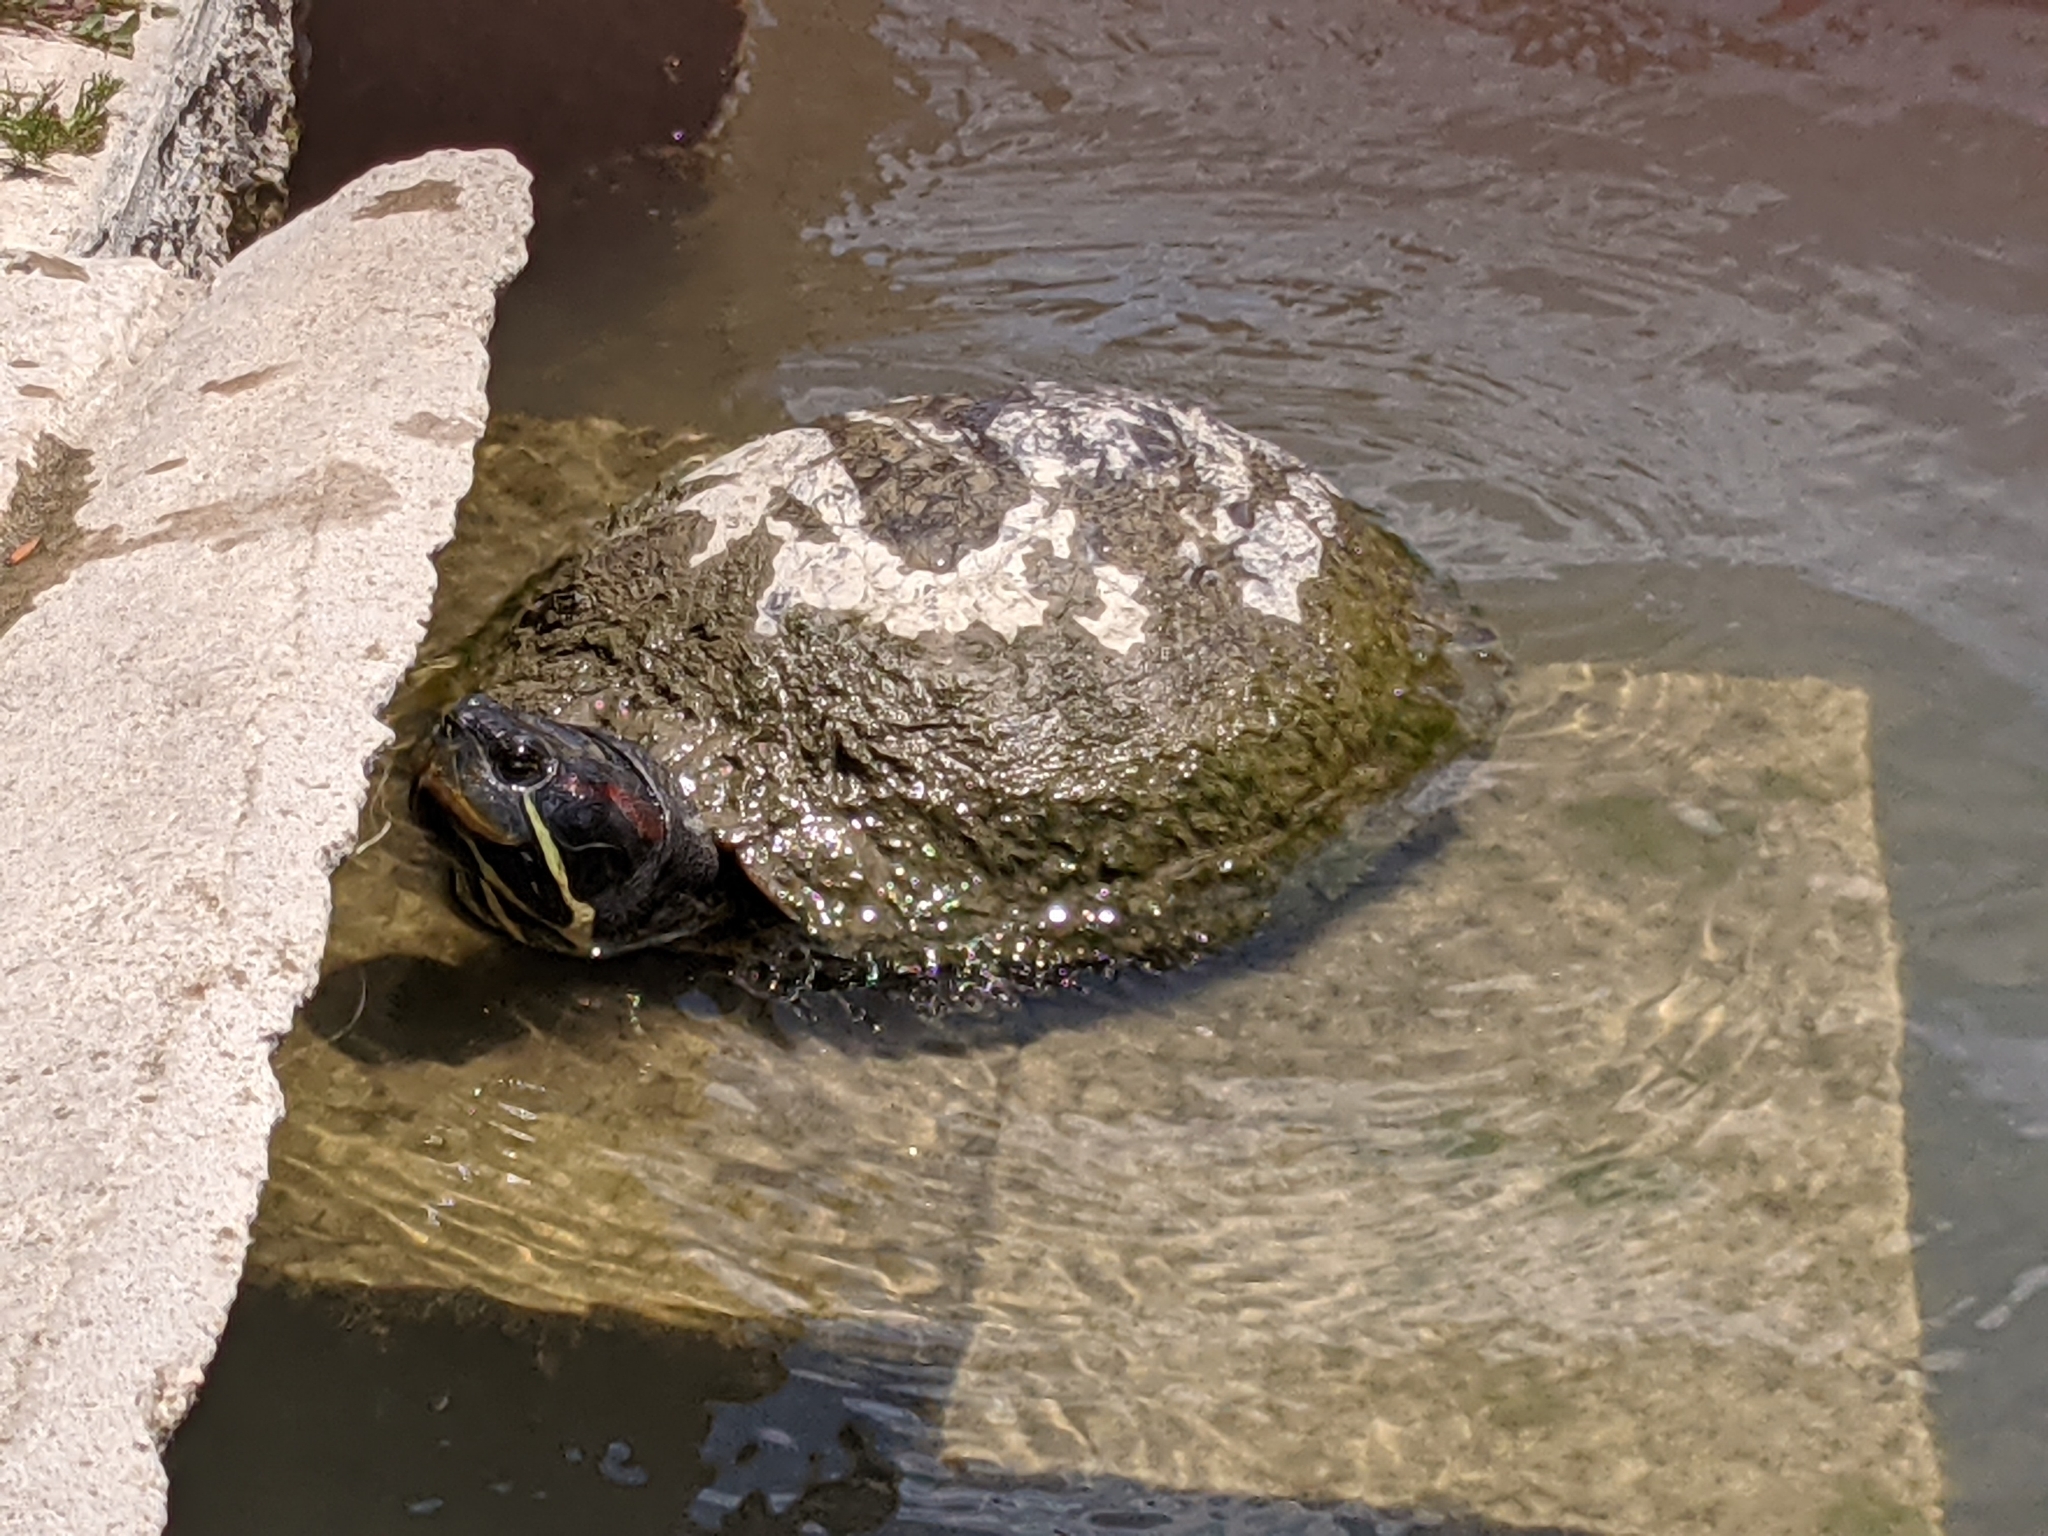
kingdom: Animalia
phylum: Chordata
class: Testudines
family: Emydidae
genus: Trachemys
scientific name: Trachemys scripta
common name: Slider
